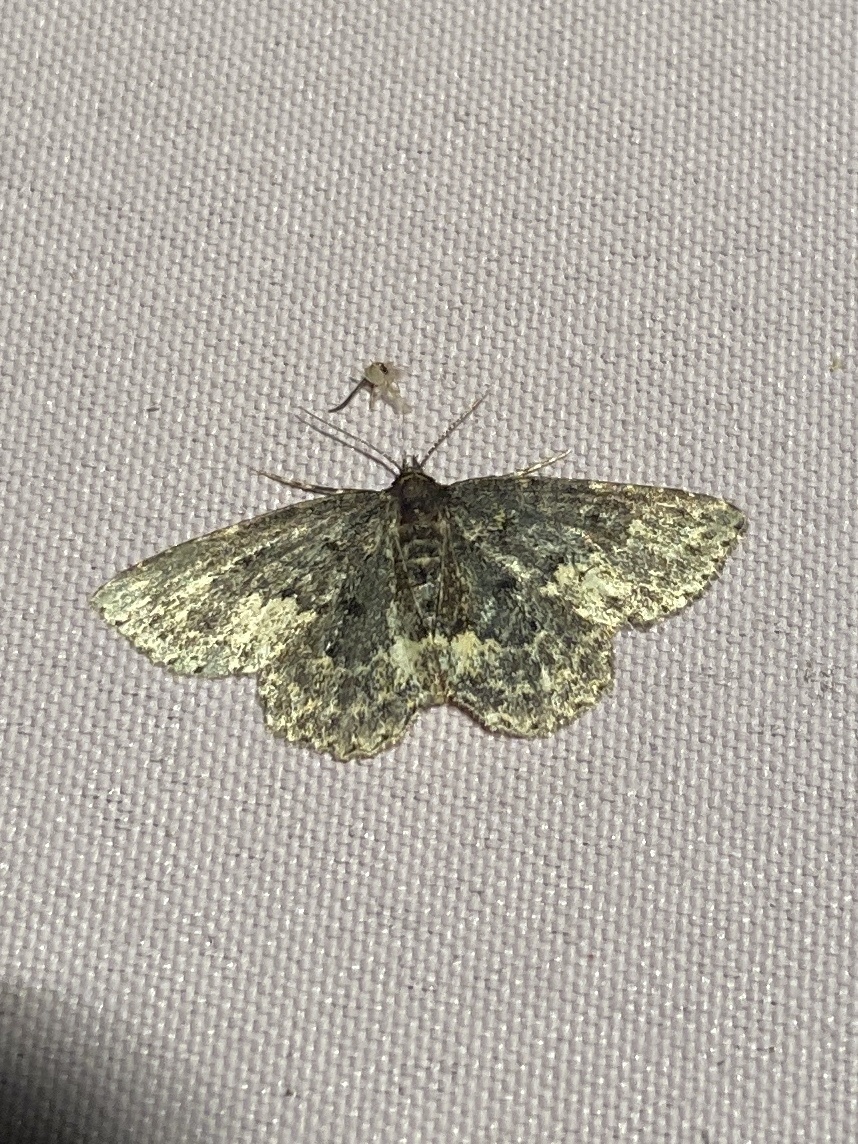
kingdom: Animalia
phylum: Arthropoda
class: Insecta
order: Lepidoptera
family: Erebidae
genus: Parascotia
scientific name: Parascotia fuliginaria
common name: Waved black
